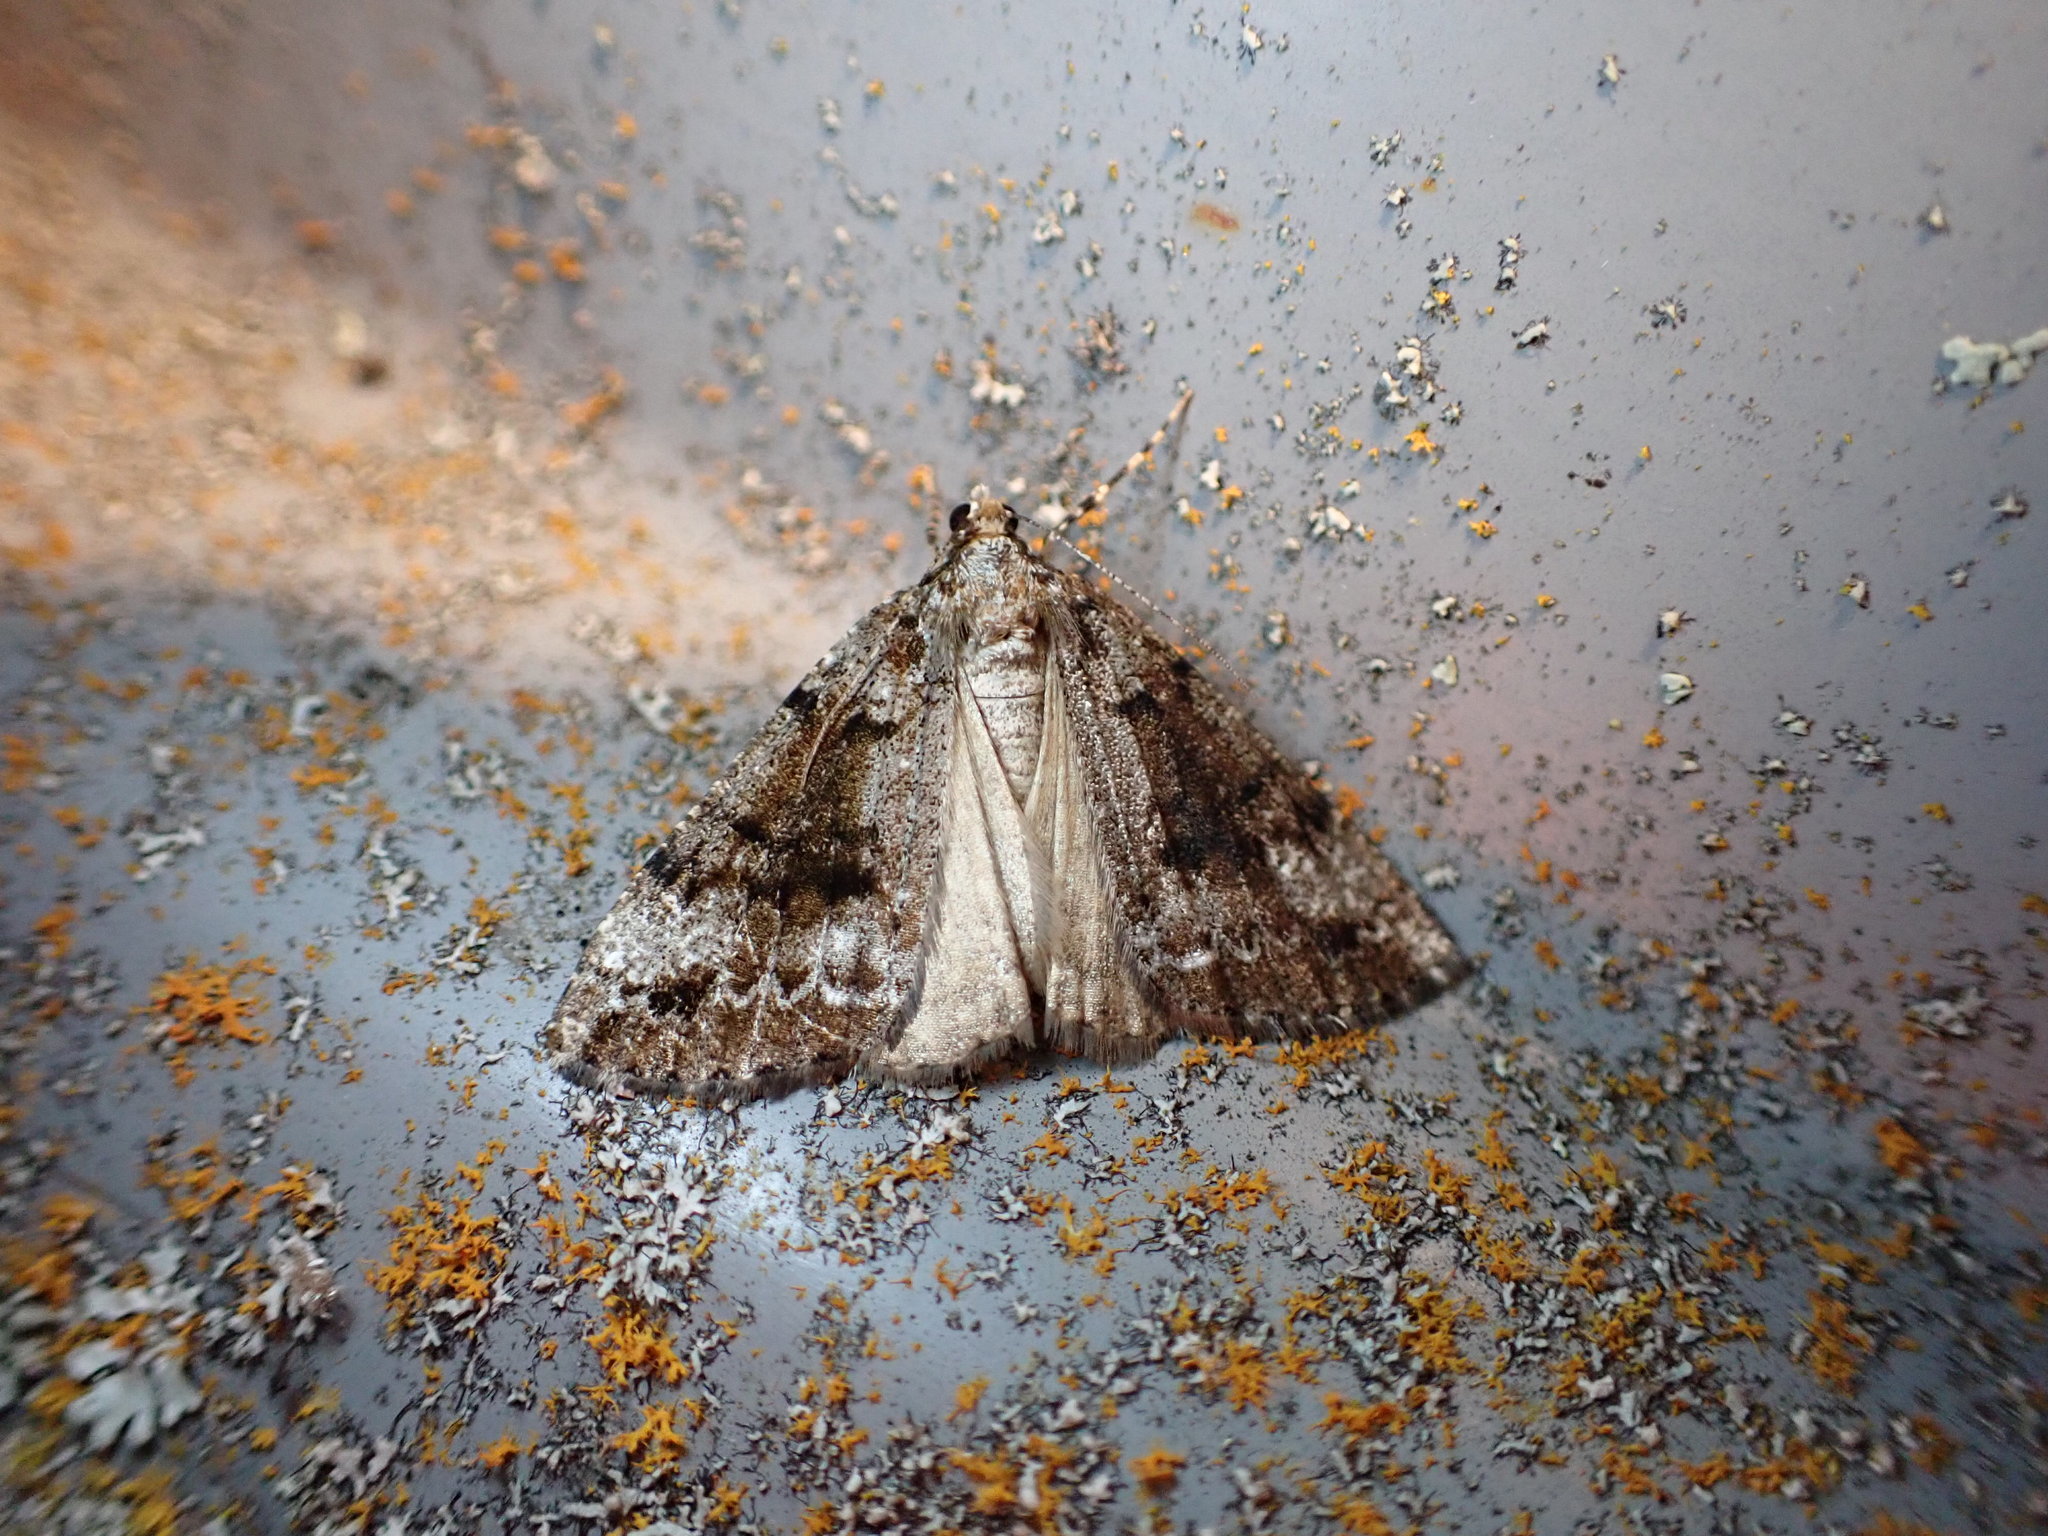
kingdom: Animalia
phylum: Arthropoda
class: Insecta
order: Lepidoptera
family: Geometridae
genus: Pseudocoremia
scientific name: Pseudocoremia leucelaea
